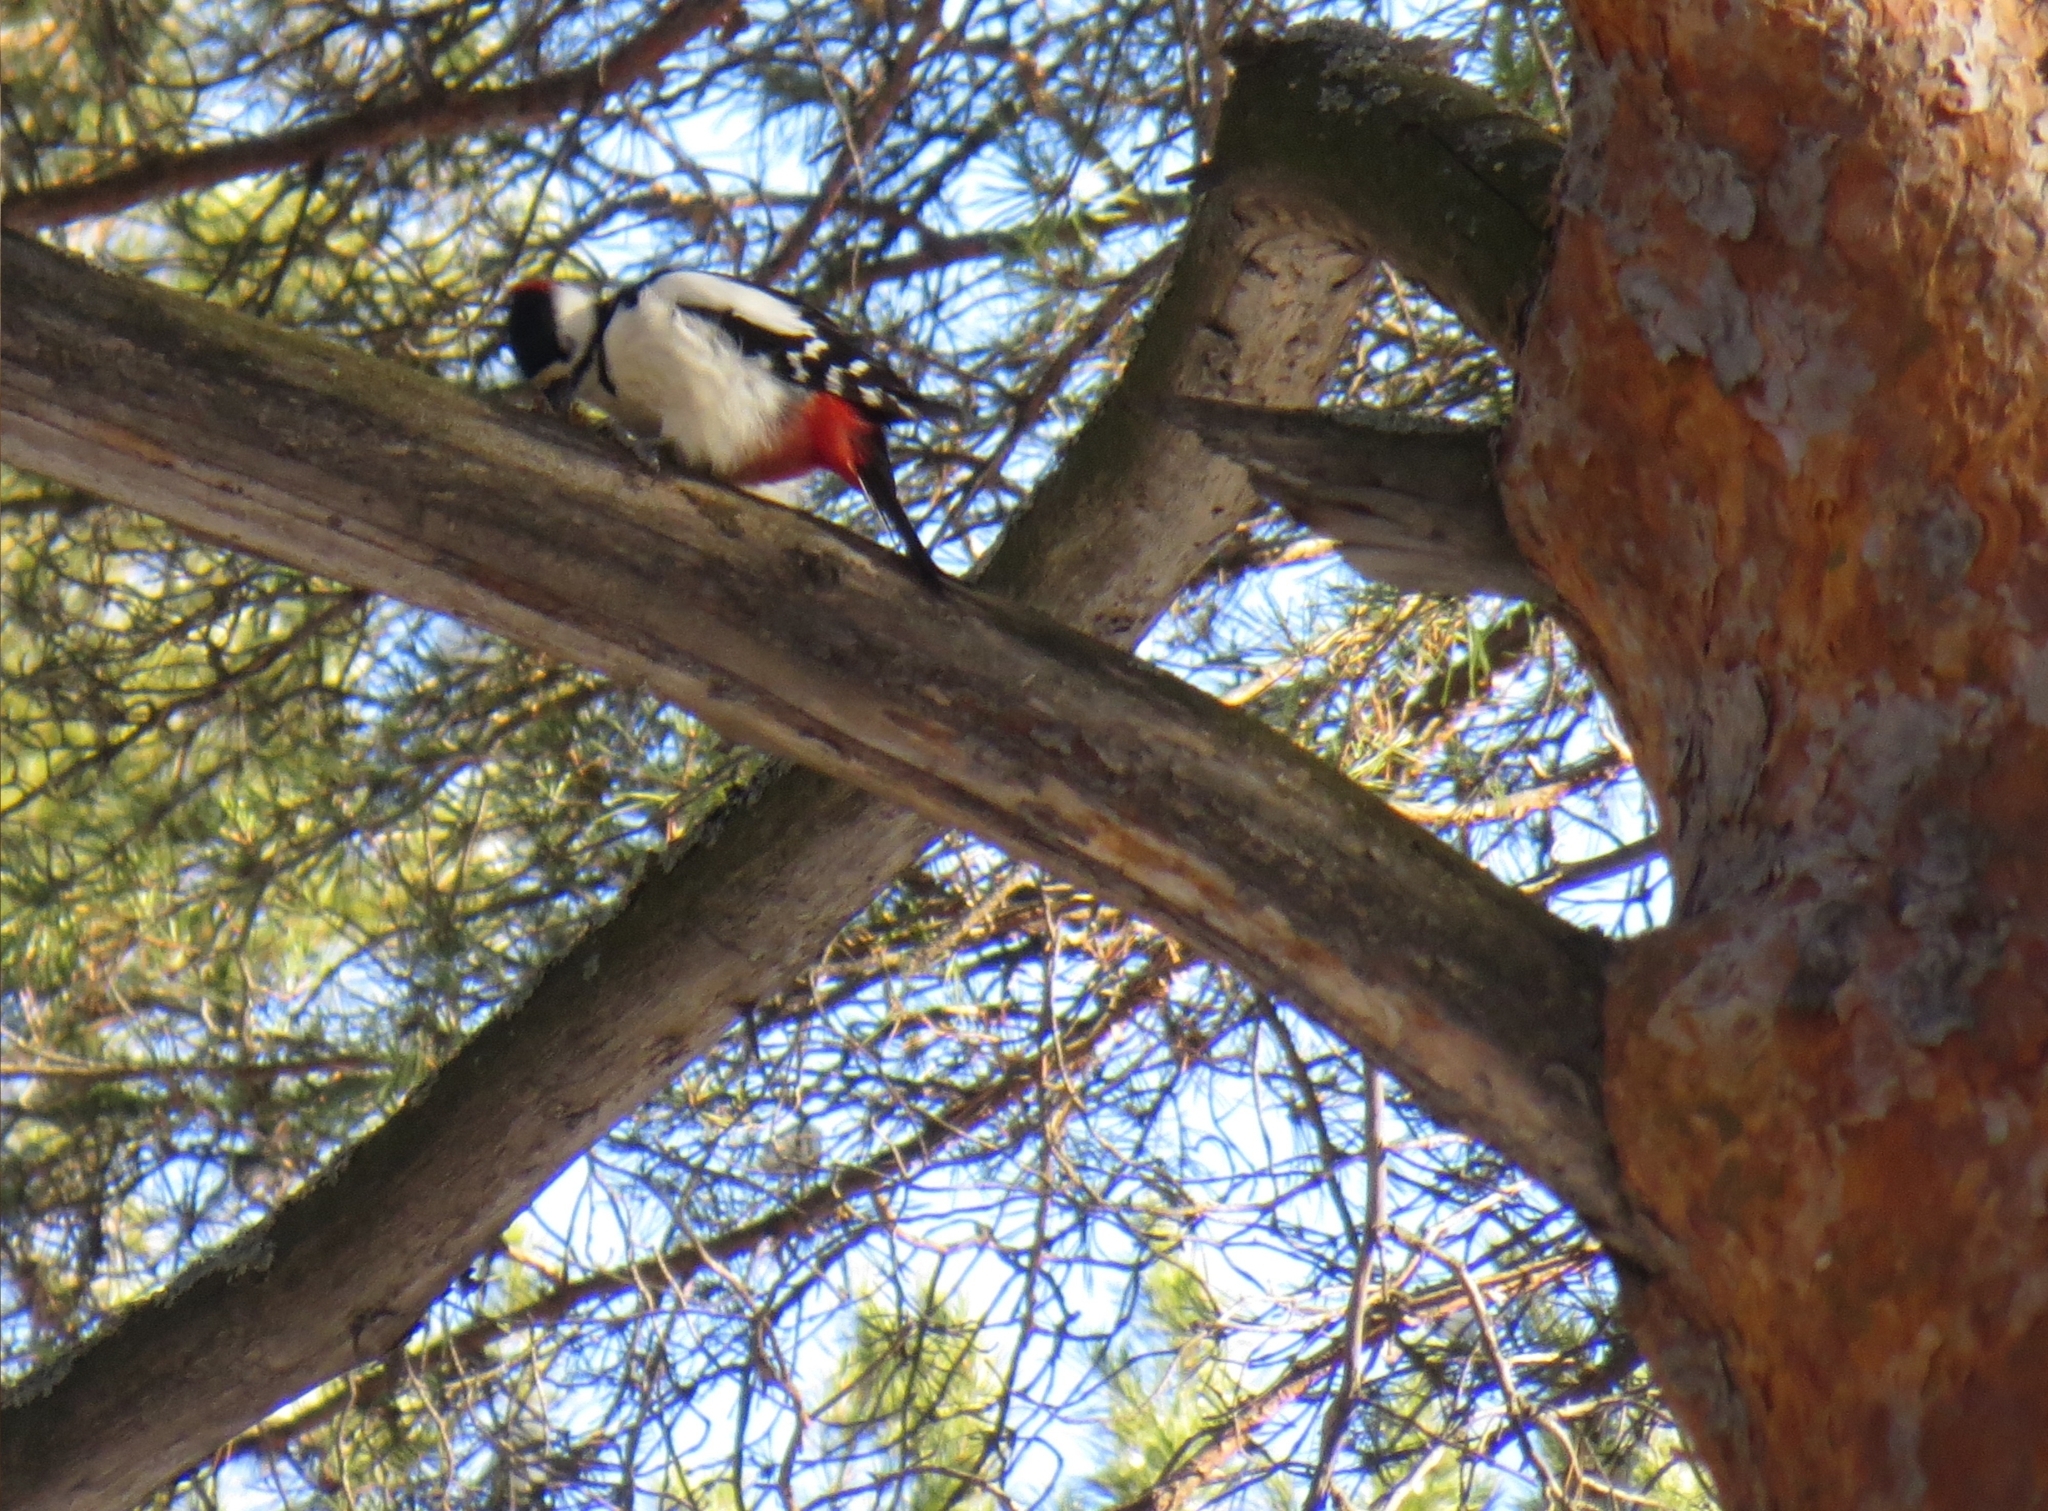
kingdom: Animalia
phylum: Chordata
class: Aves
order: Piciformes
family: Picidae
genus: Dendrocopos
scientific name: Dendrocopos major
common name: Great spotted woodpecker
